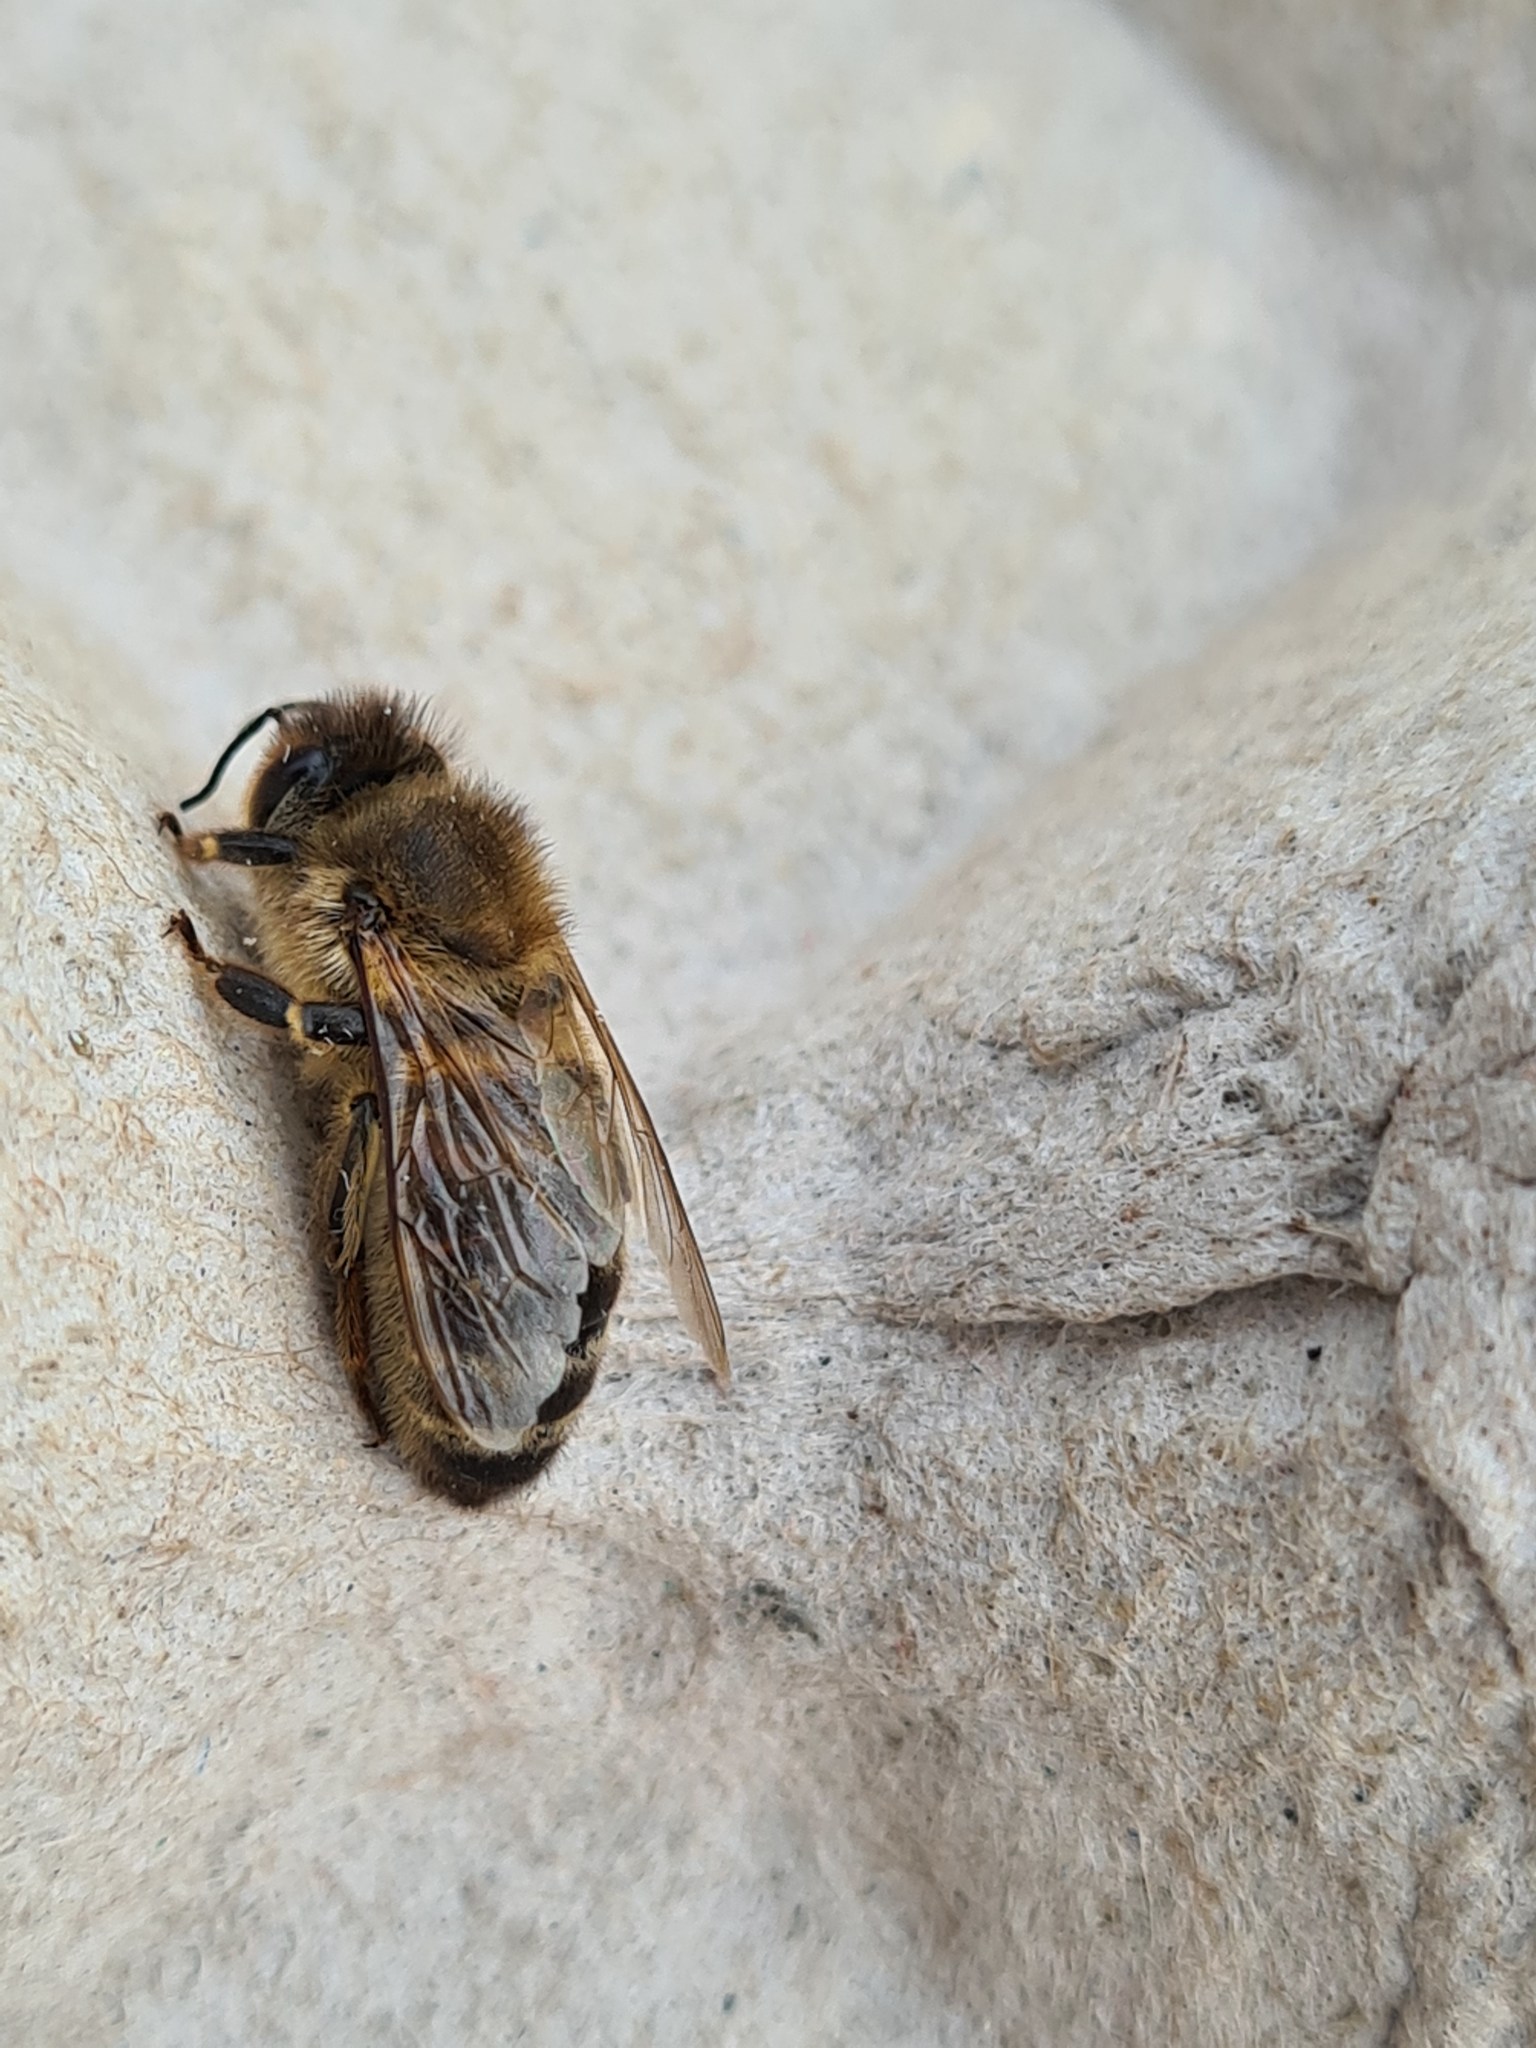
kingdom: Animalia
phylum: Arthropoda
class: Insecta
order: Hymenoptera
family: Apidae
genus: Apis
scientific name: Apis mellifera
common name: Honey bee
